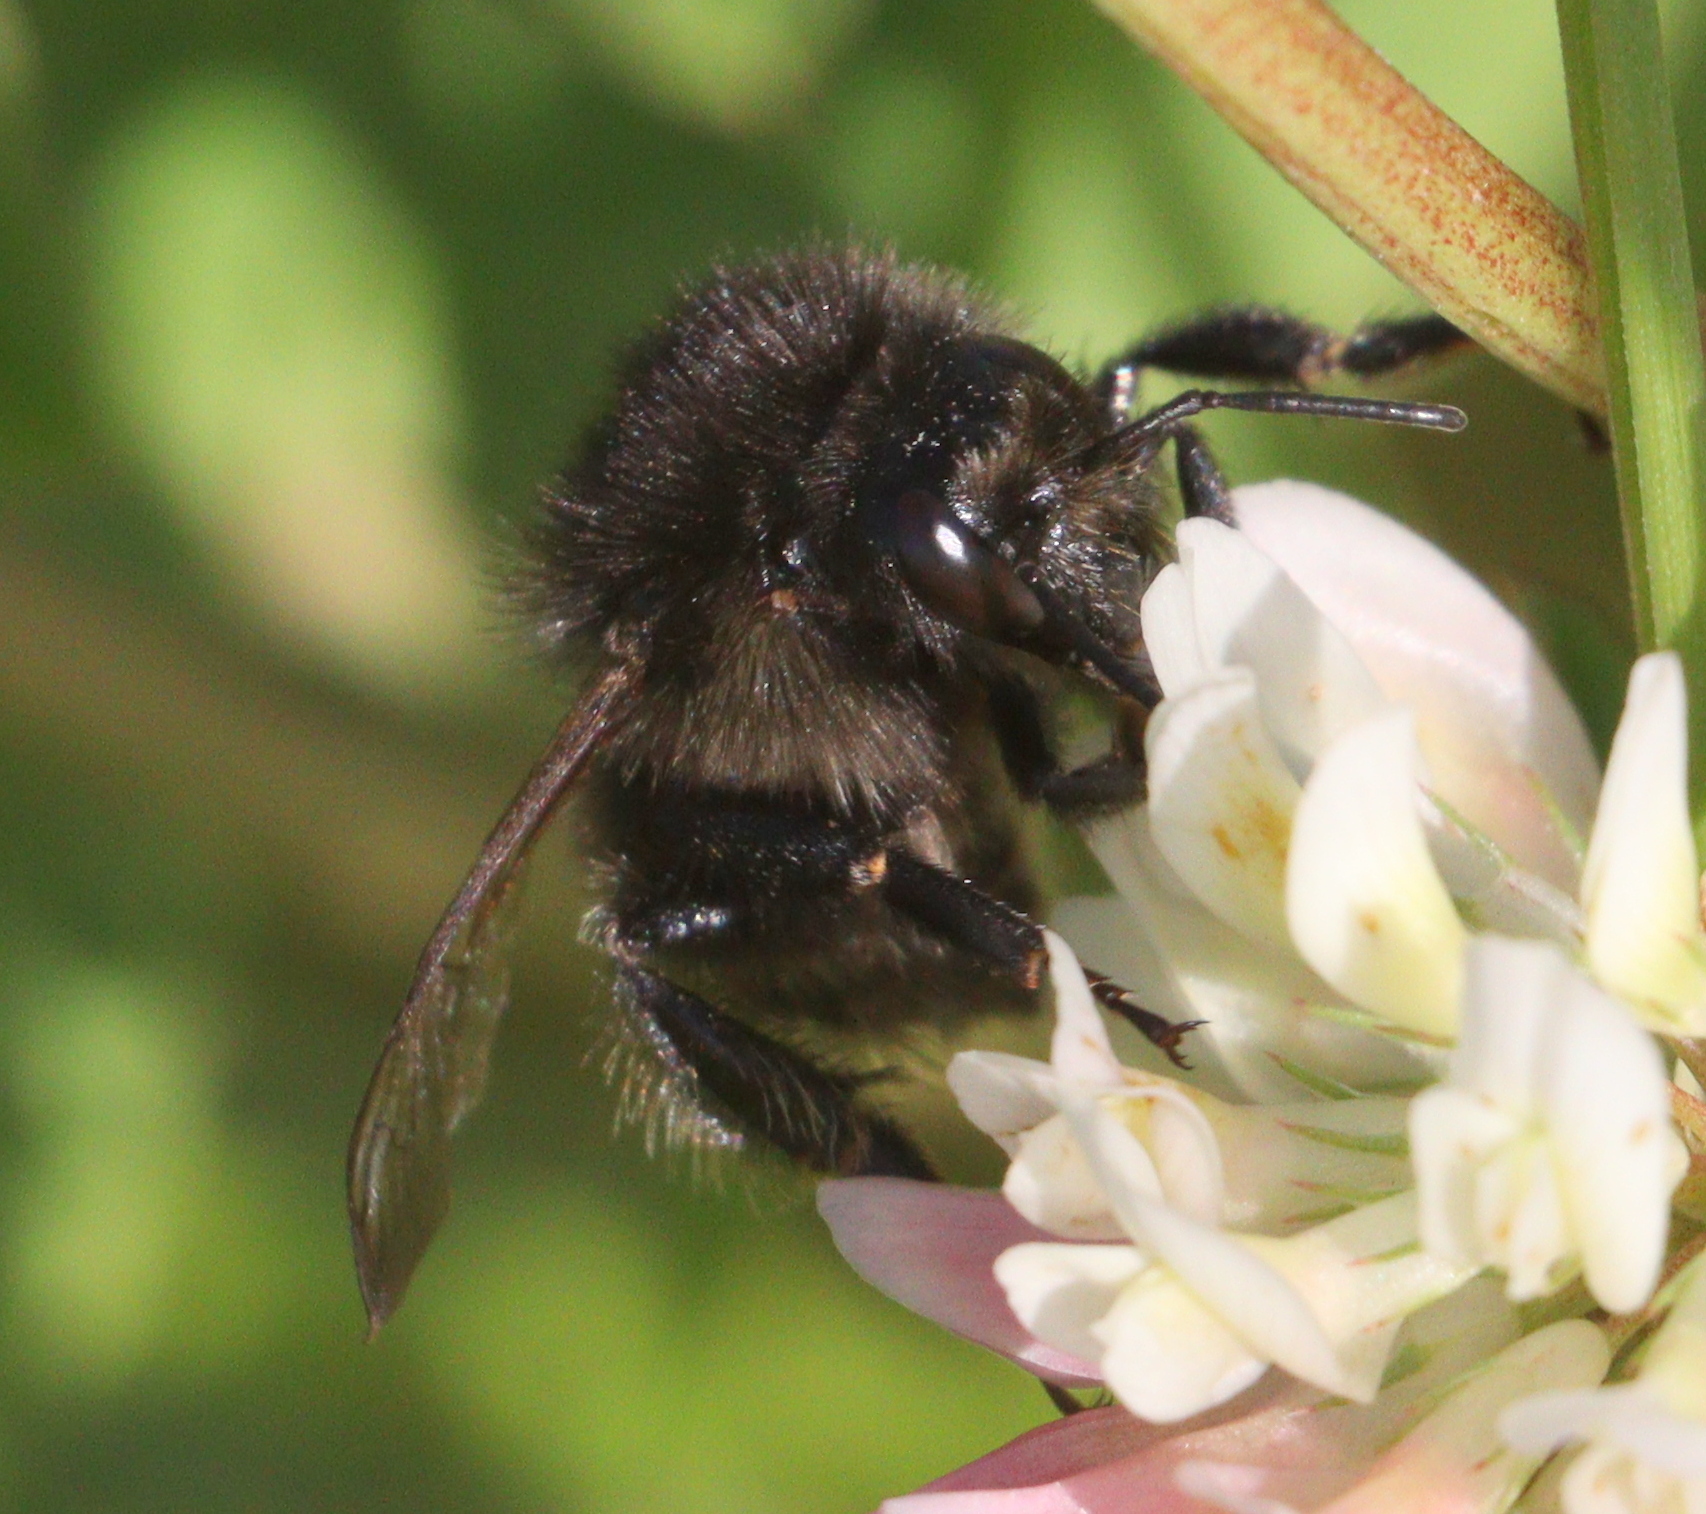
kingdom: Animalia
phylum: Arthropoda
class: Insecta
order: Hymenoptera
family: Apidae
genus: Bombus
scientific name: Bombus humilis
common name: Brown-banded carder-bee
